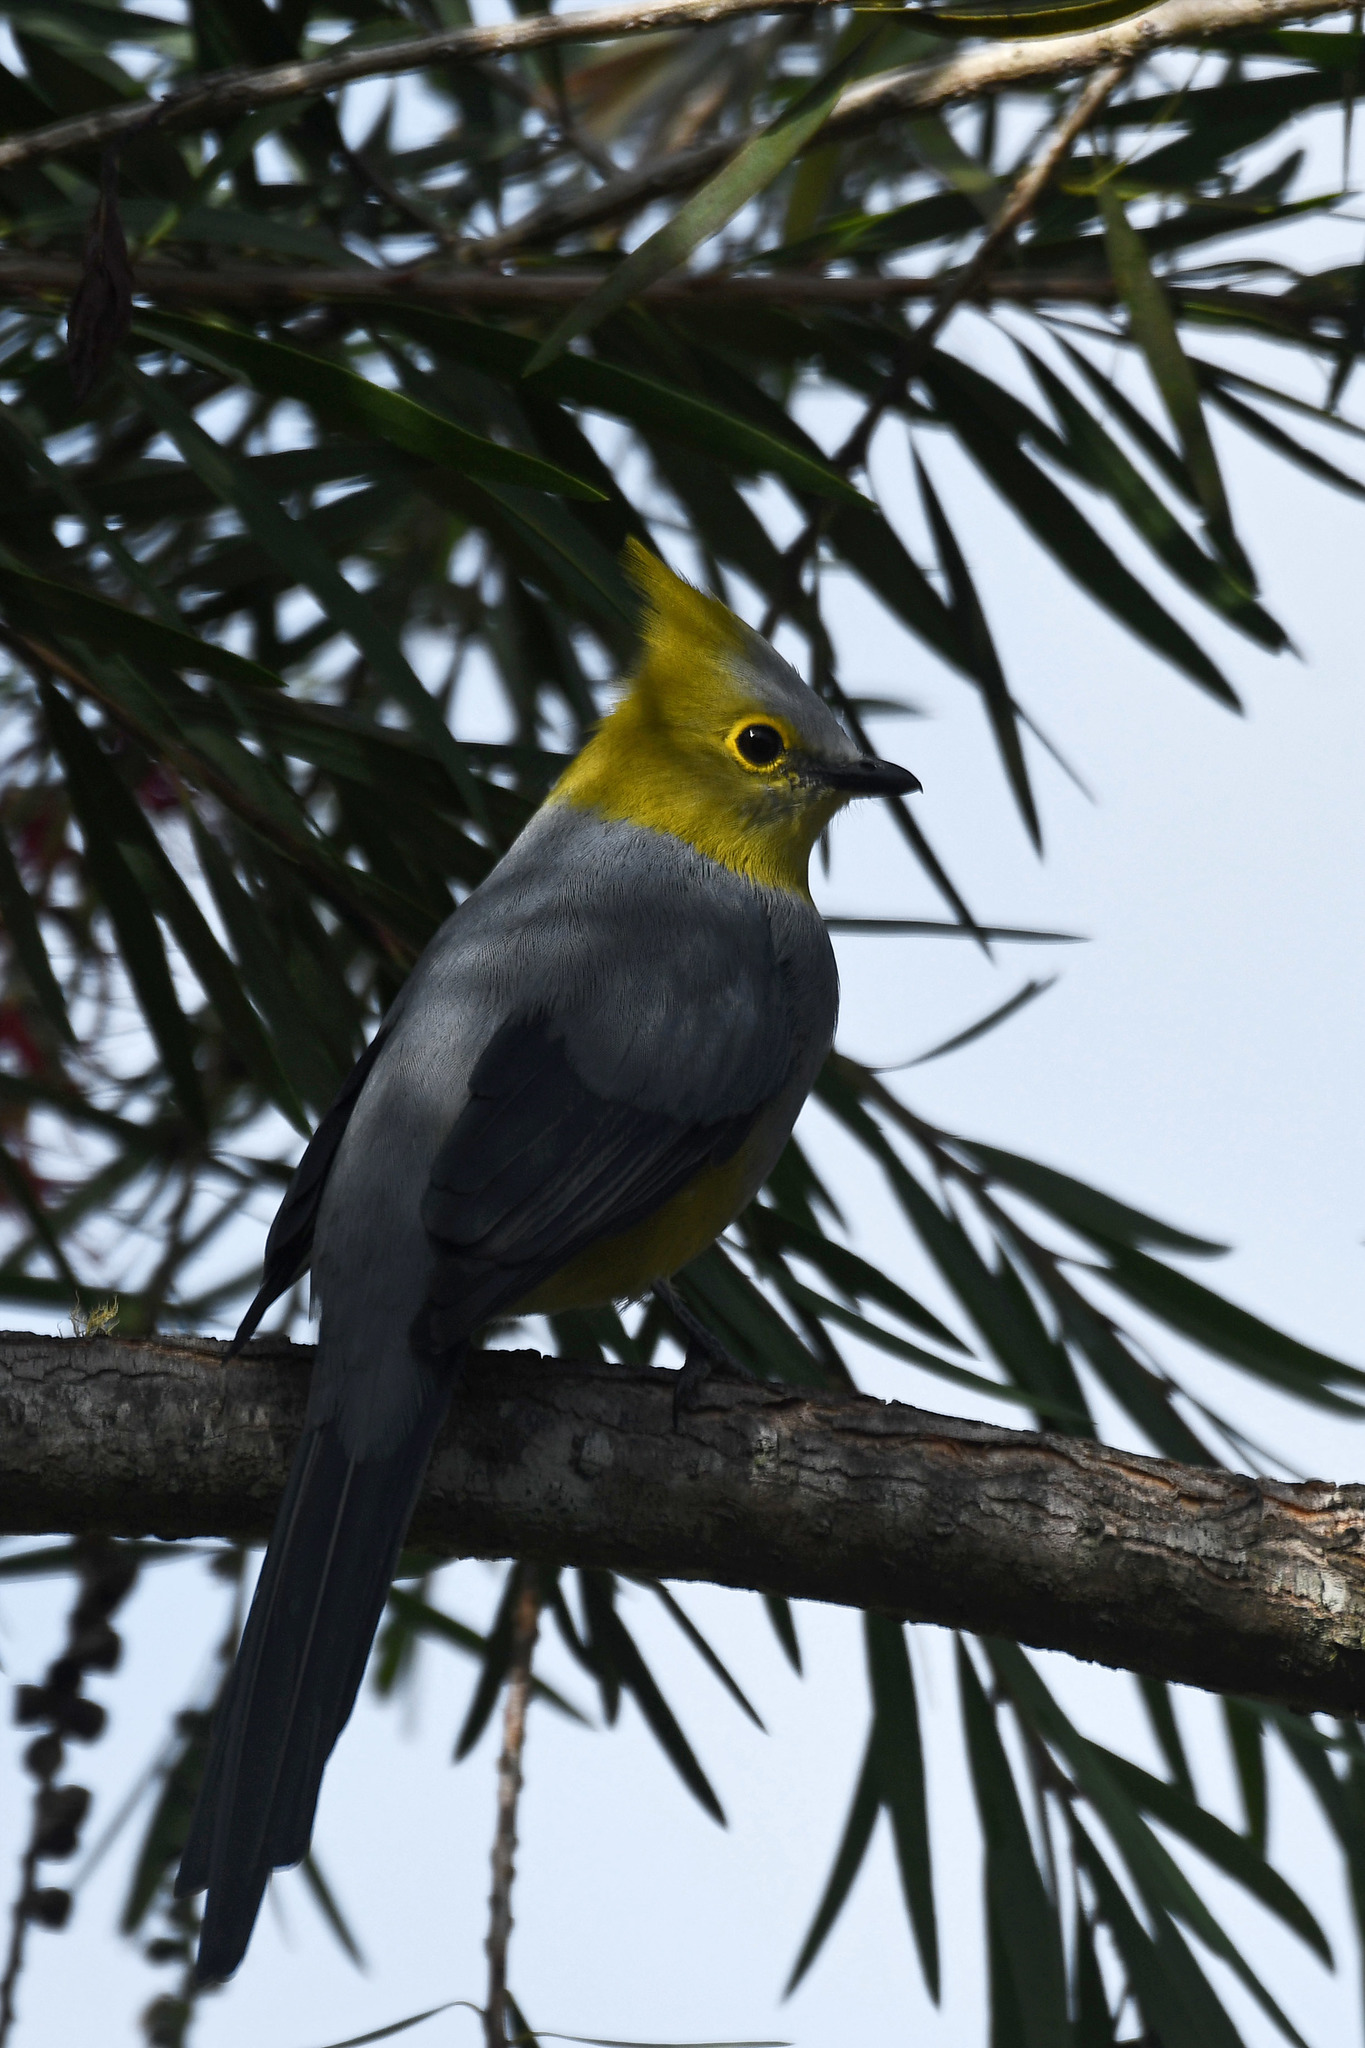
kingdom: Animalia
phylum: Chordata
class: Aves
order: Passeriformes
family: Ptilogonatidae
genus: Ptilogonys
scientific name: Ptilogonys caudatus
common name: Long-tailed silky-flycatcher
